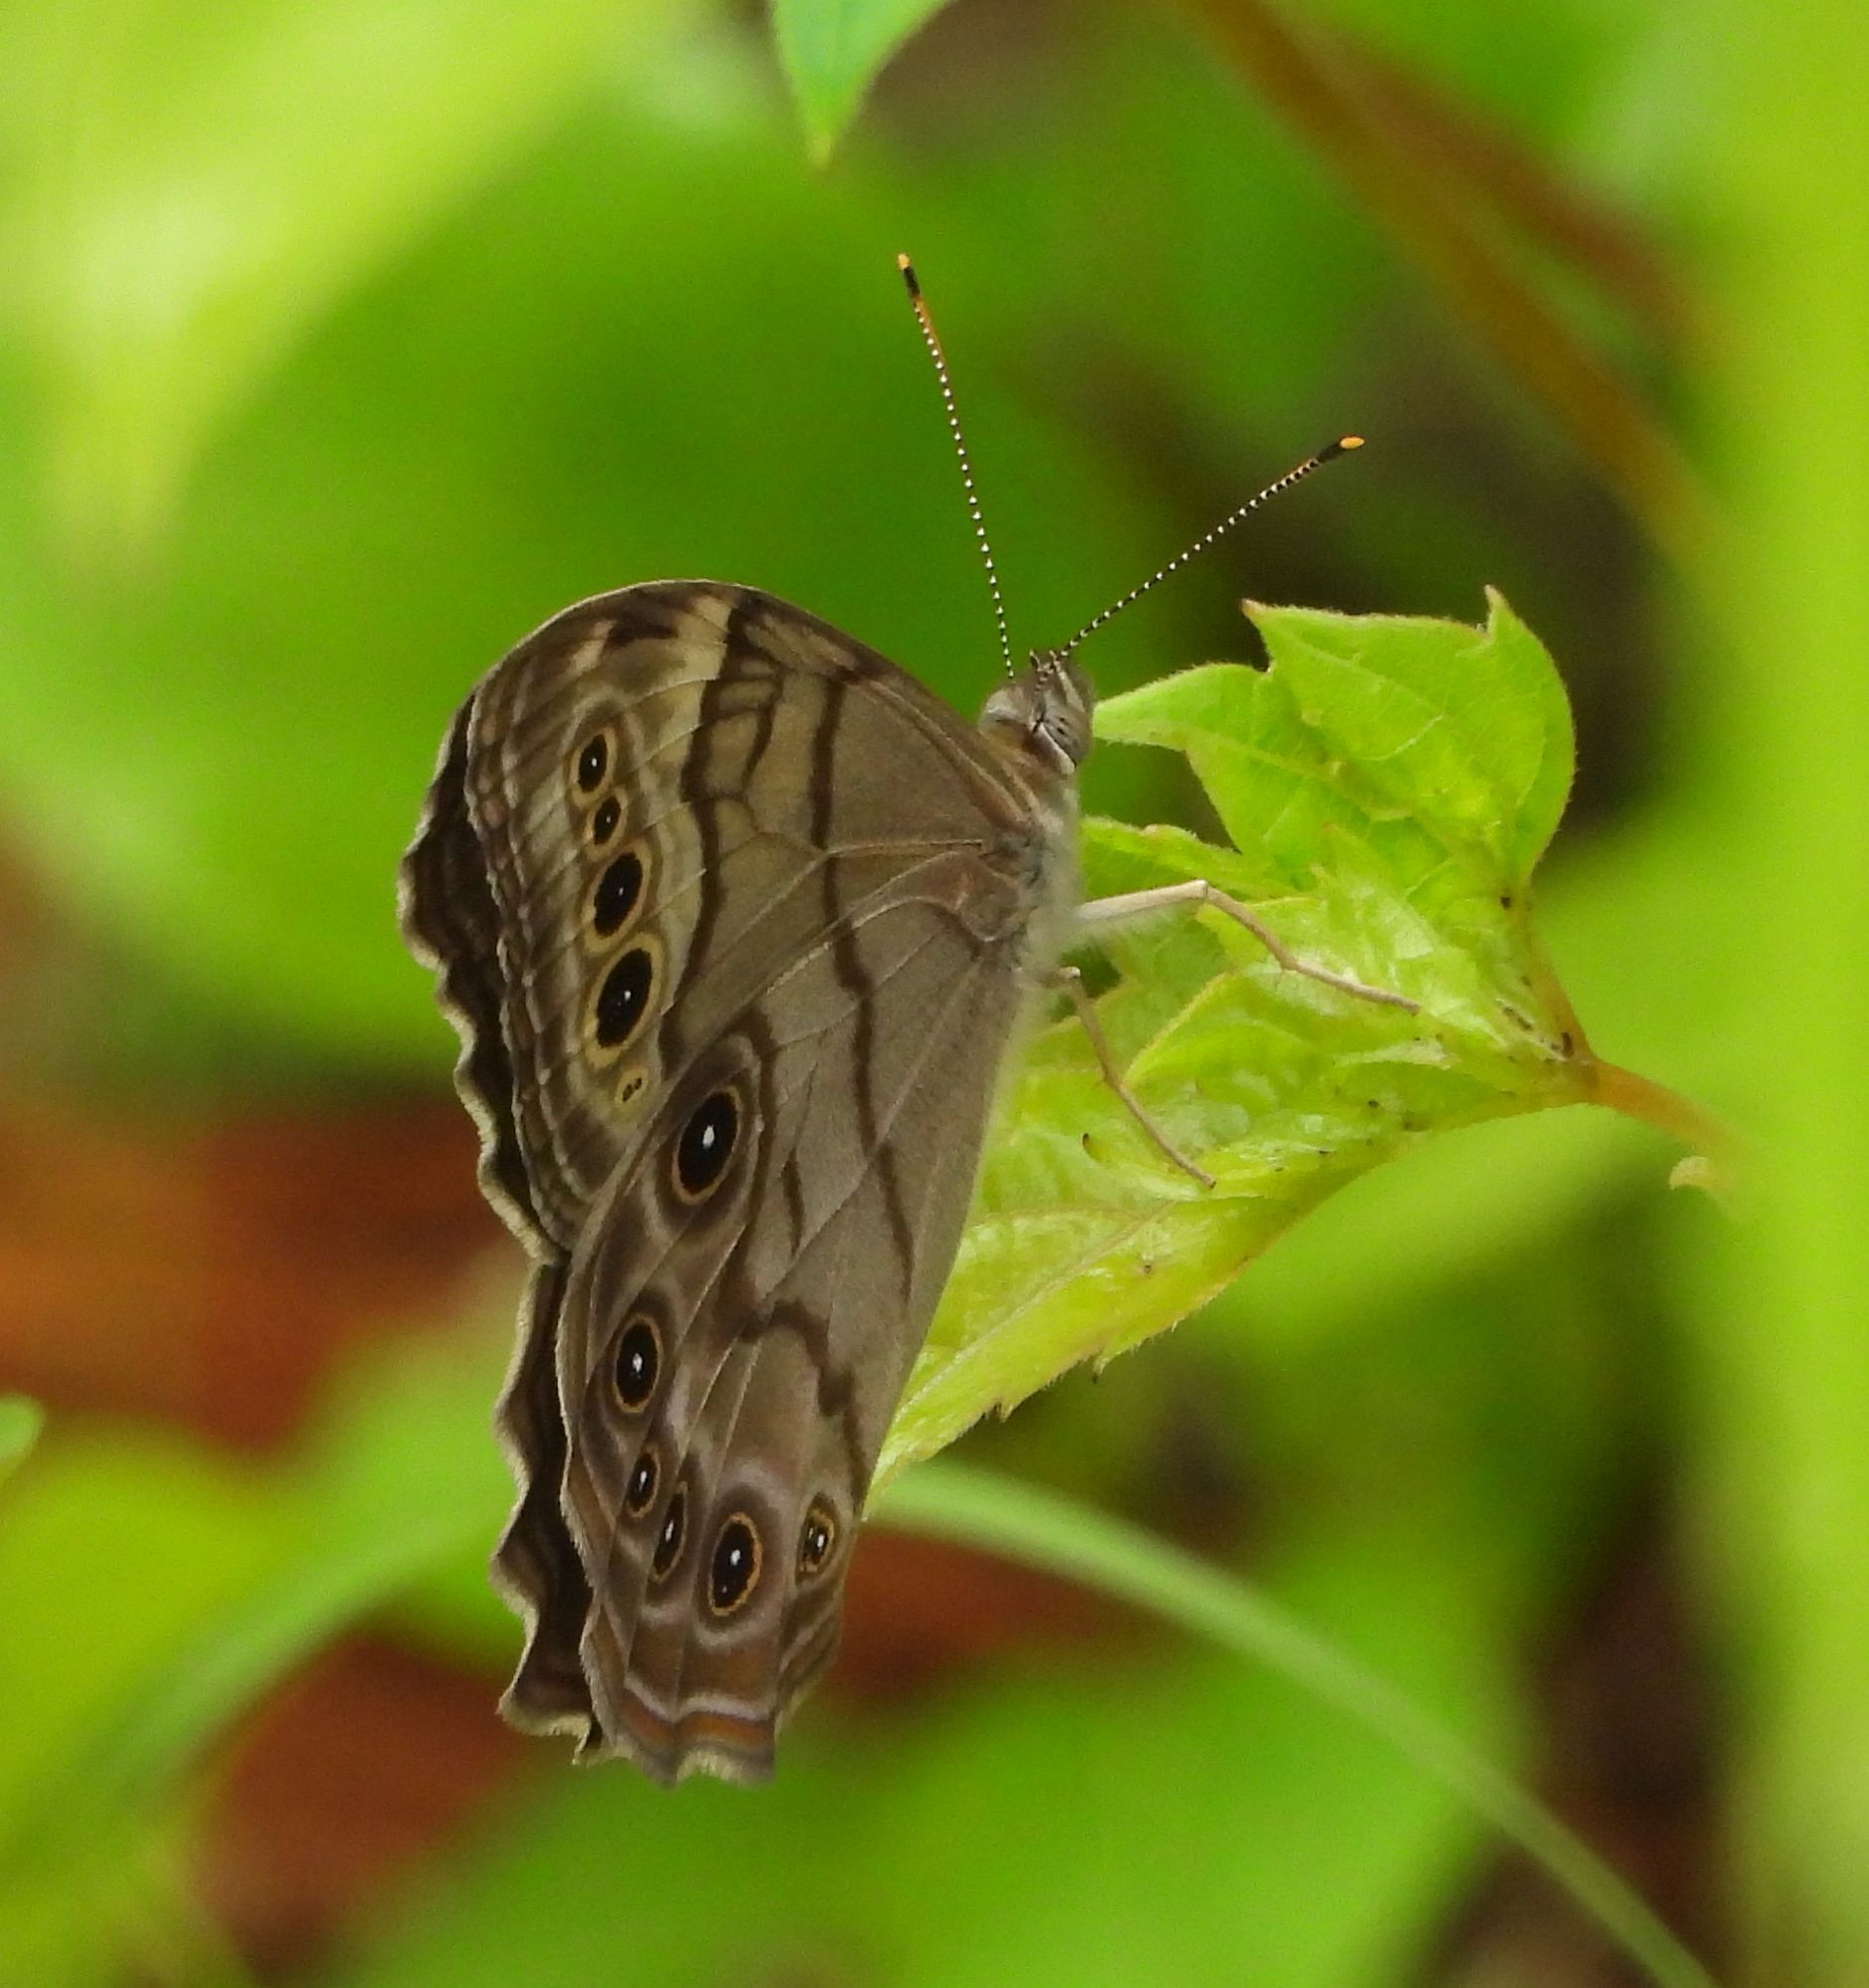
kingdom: Animalia
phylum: Arthropoda
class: Insecta
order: Lepidoptera
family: Nymphalidae
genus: Lethe
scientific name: Lethe anthedon
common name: Northern pearly-eye
